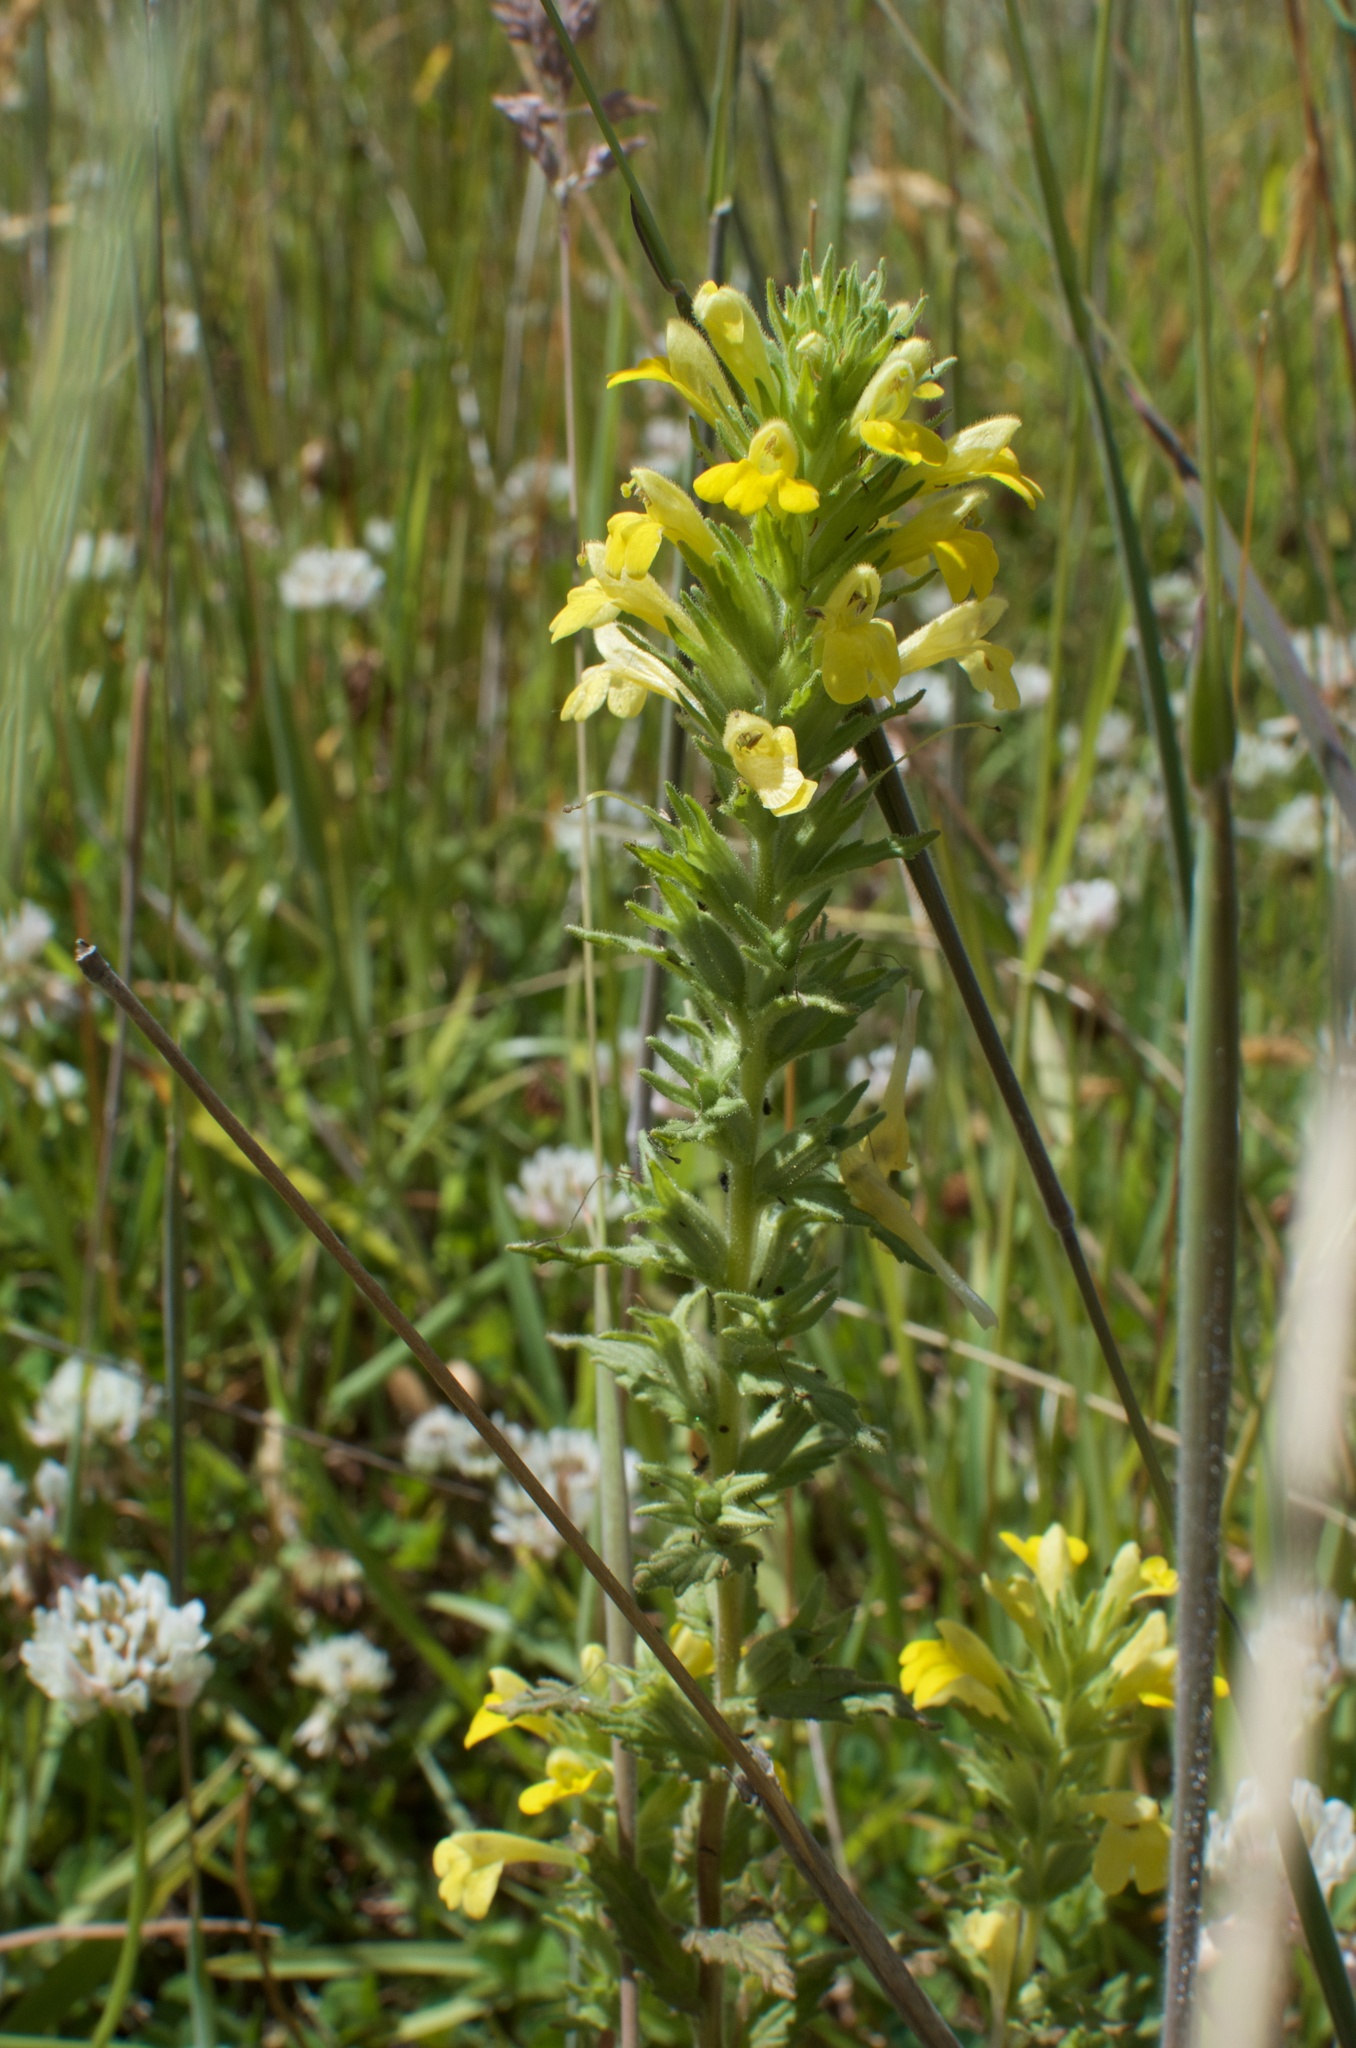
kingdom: Plantae
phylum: Tracheophyta
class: Magnoliopsida
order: Lamiales
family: Orobanchaceae
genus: Bellardia
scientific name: Bellardia viscosa
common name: Sticky parentucellia
